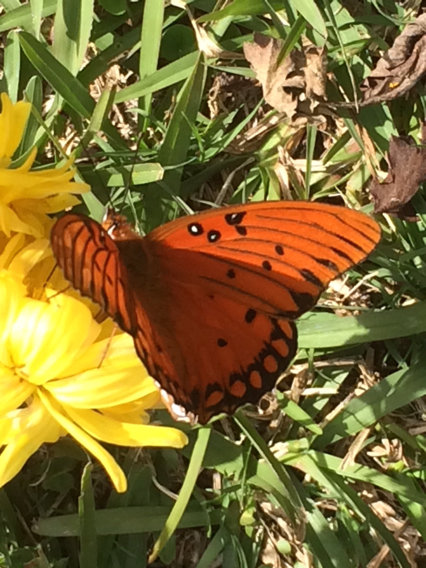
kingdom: Animalia
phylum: Arthropoda
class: Insecta
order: Lepidoptera
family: Nymphalidae
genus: Dione
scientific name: Dione vanillae
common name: Gulf fritillary
